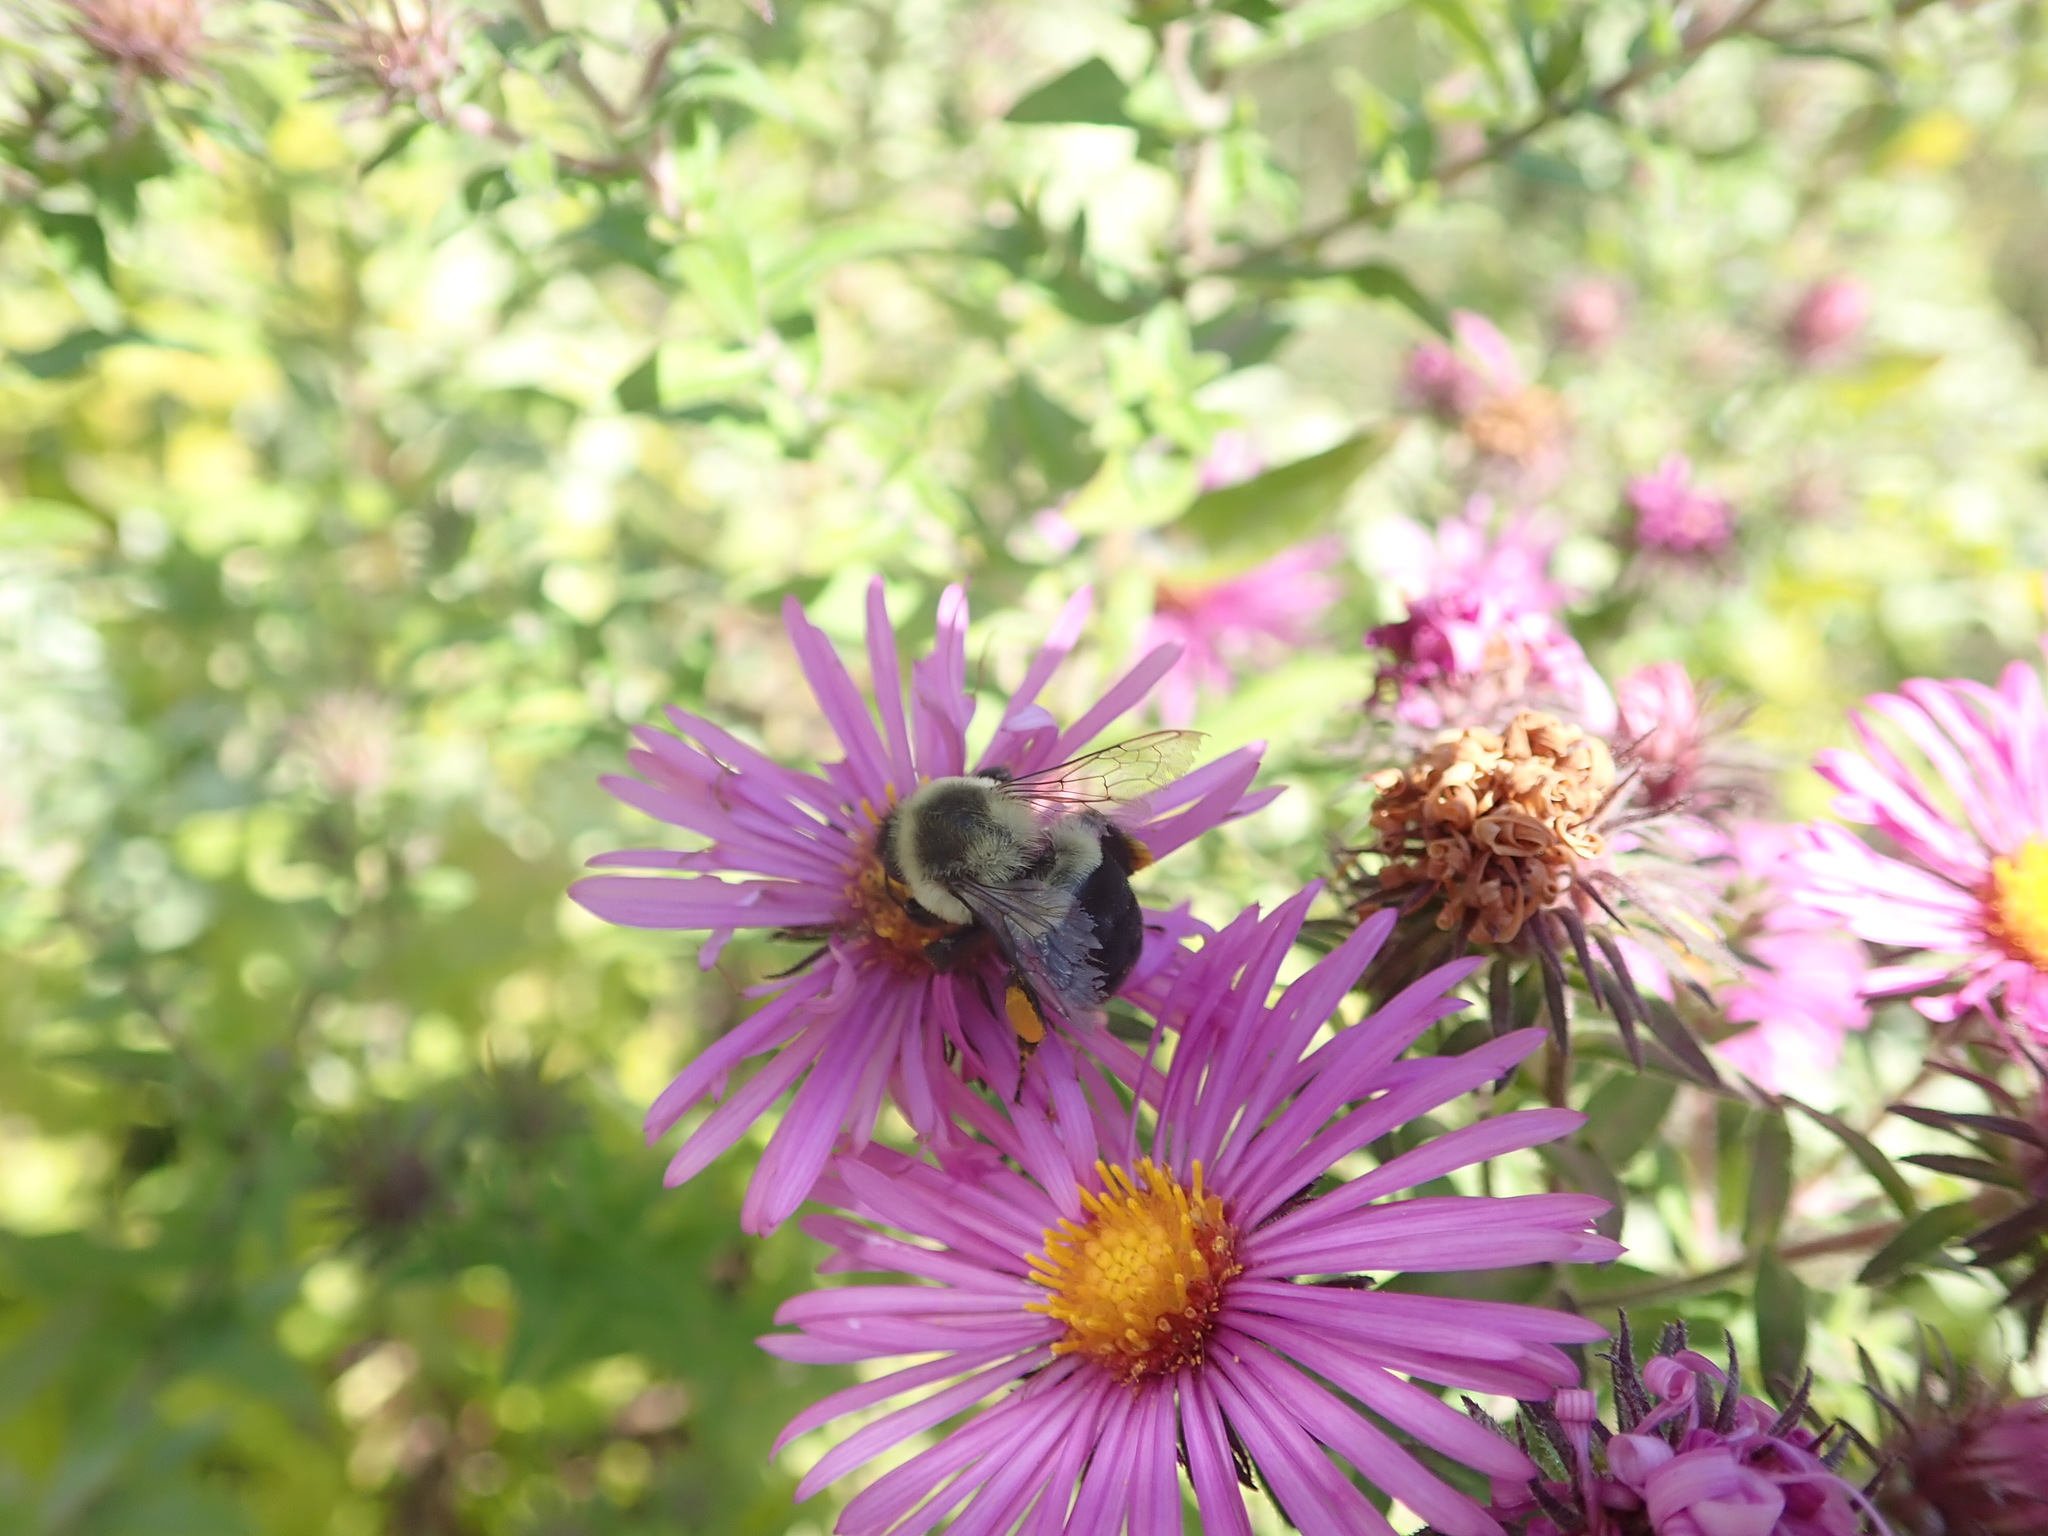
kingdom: Animalia
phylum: Arthropoda
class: Insecta
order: Hymenoptera
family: Apidae
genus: Bombus
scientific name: Bombus impatiens
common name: Common eastern bumble bee
